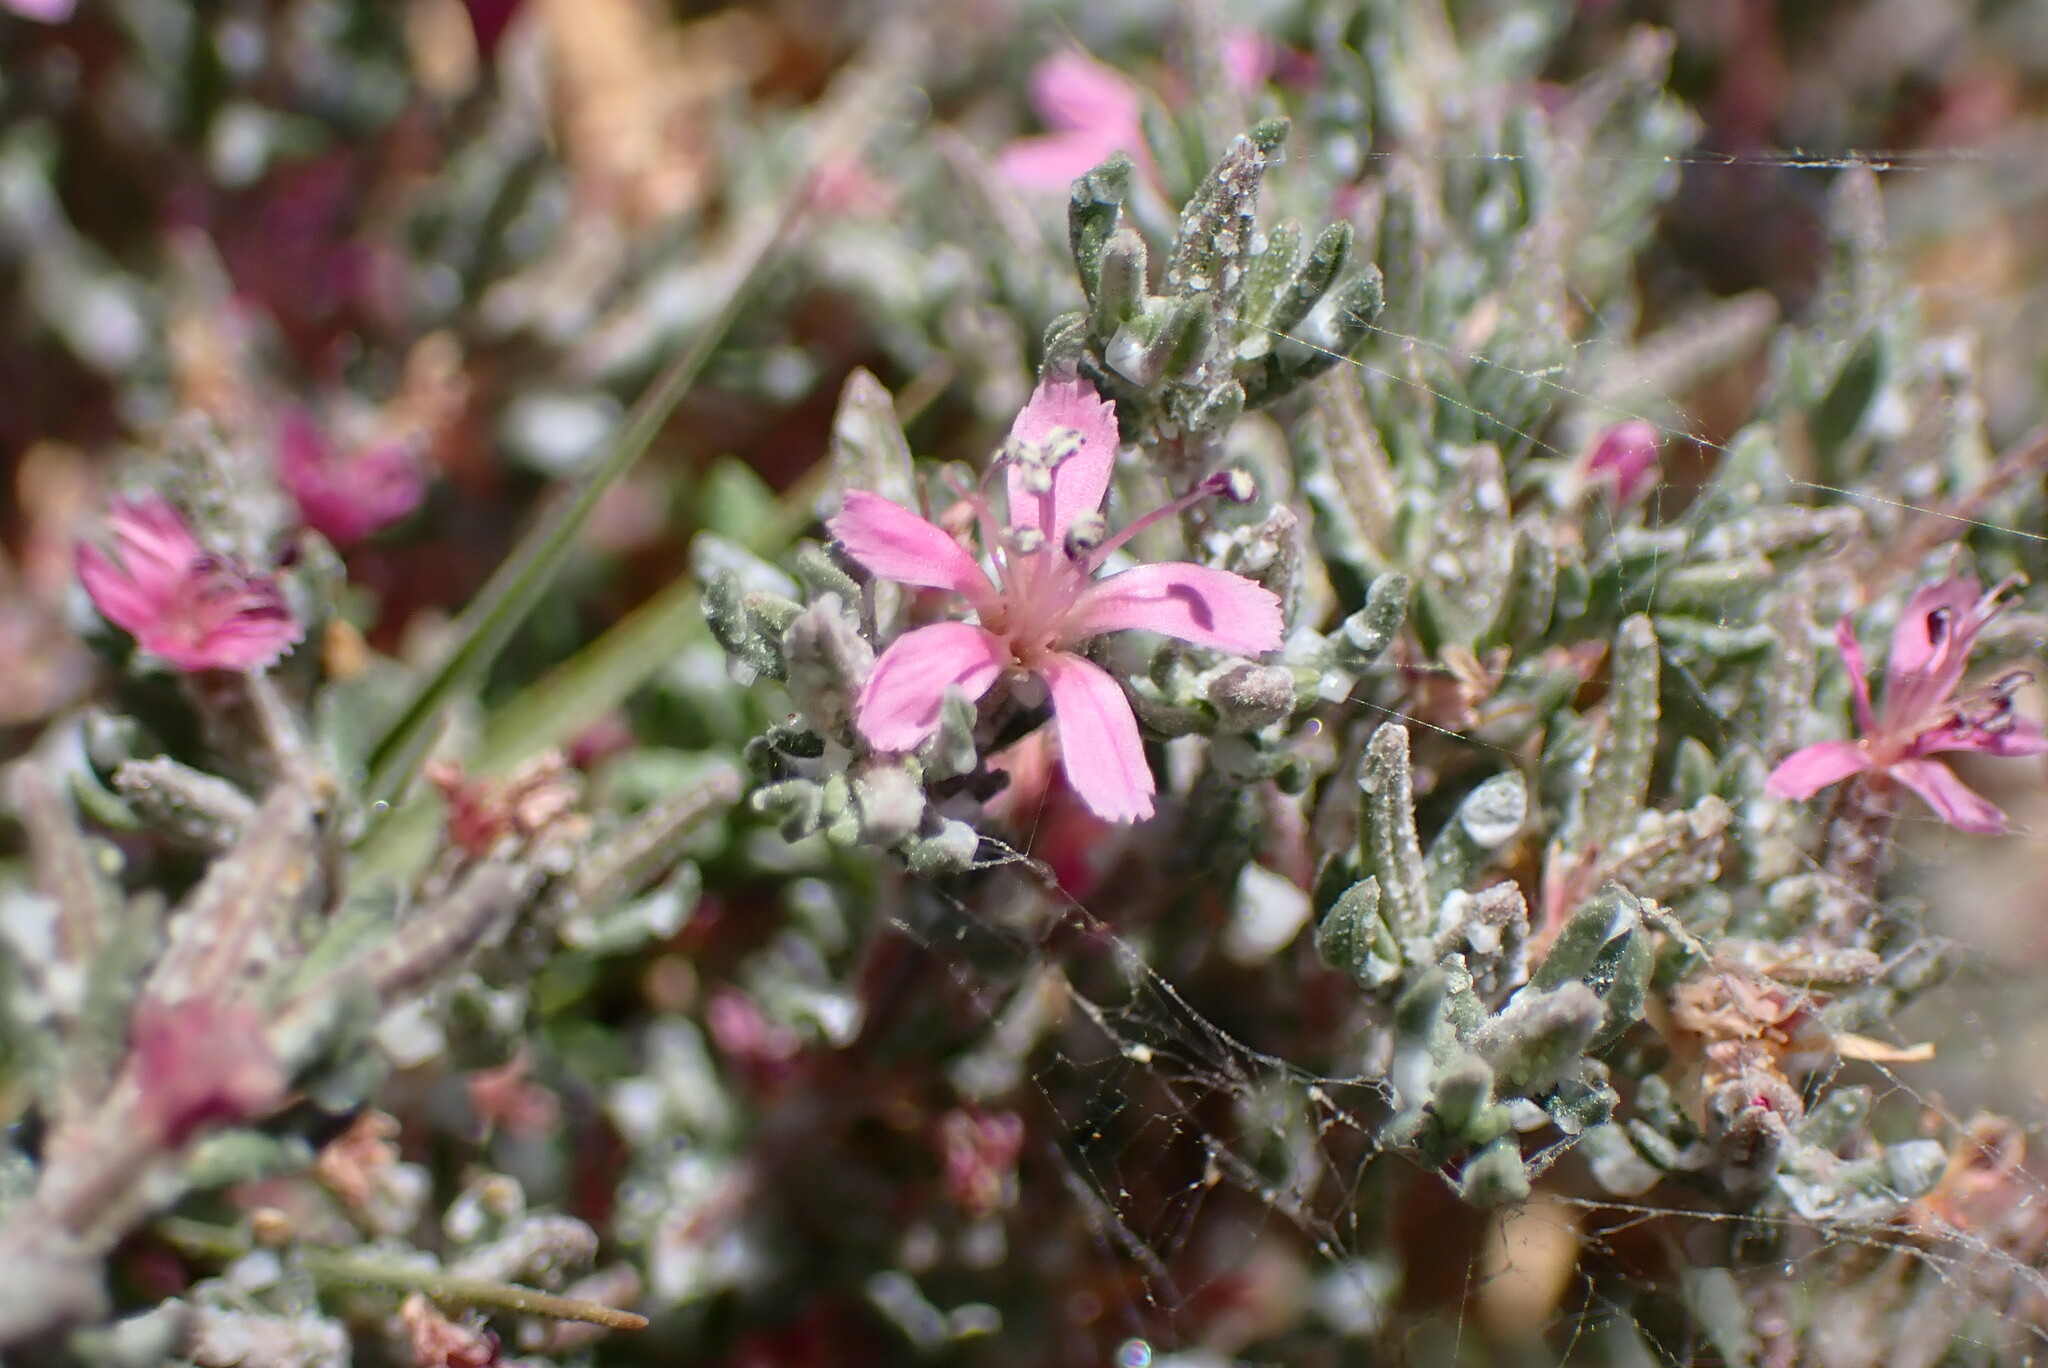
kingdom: Plantae
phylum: Tracheophyta
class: Magnoliopsida
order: Caryophyllales
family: Frankeniaceae
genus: Frankenia
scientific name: Frankenia salina
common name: Alkali seaheath
